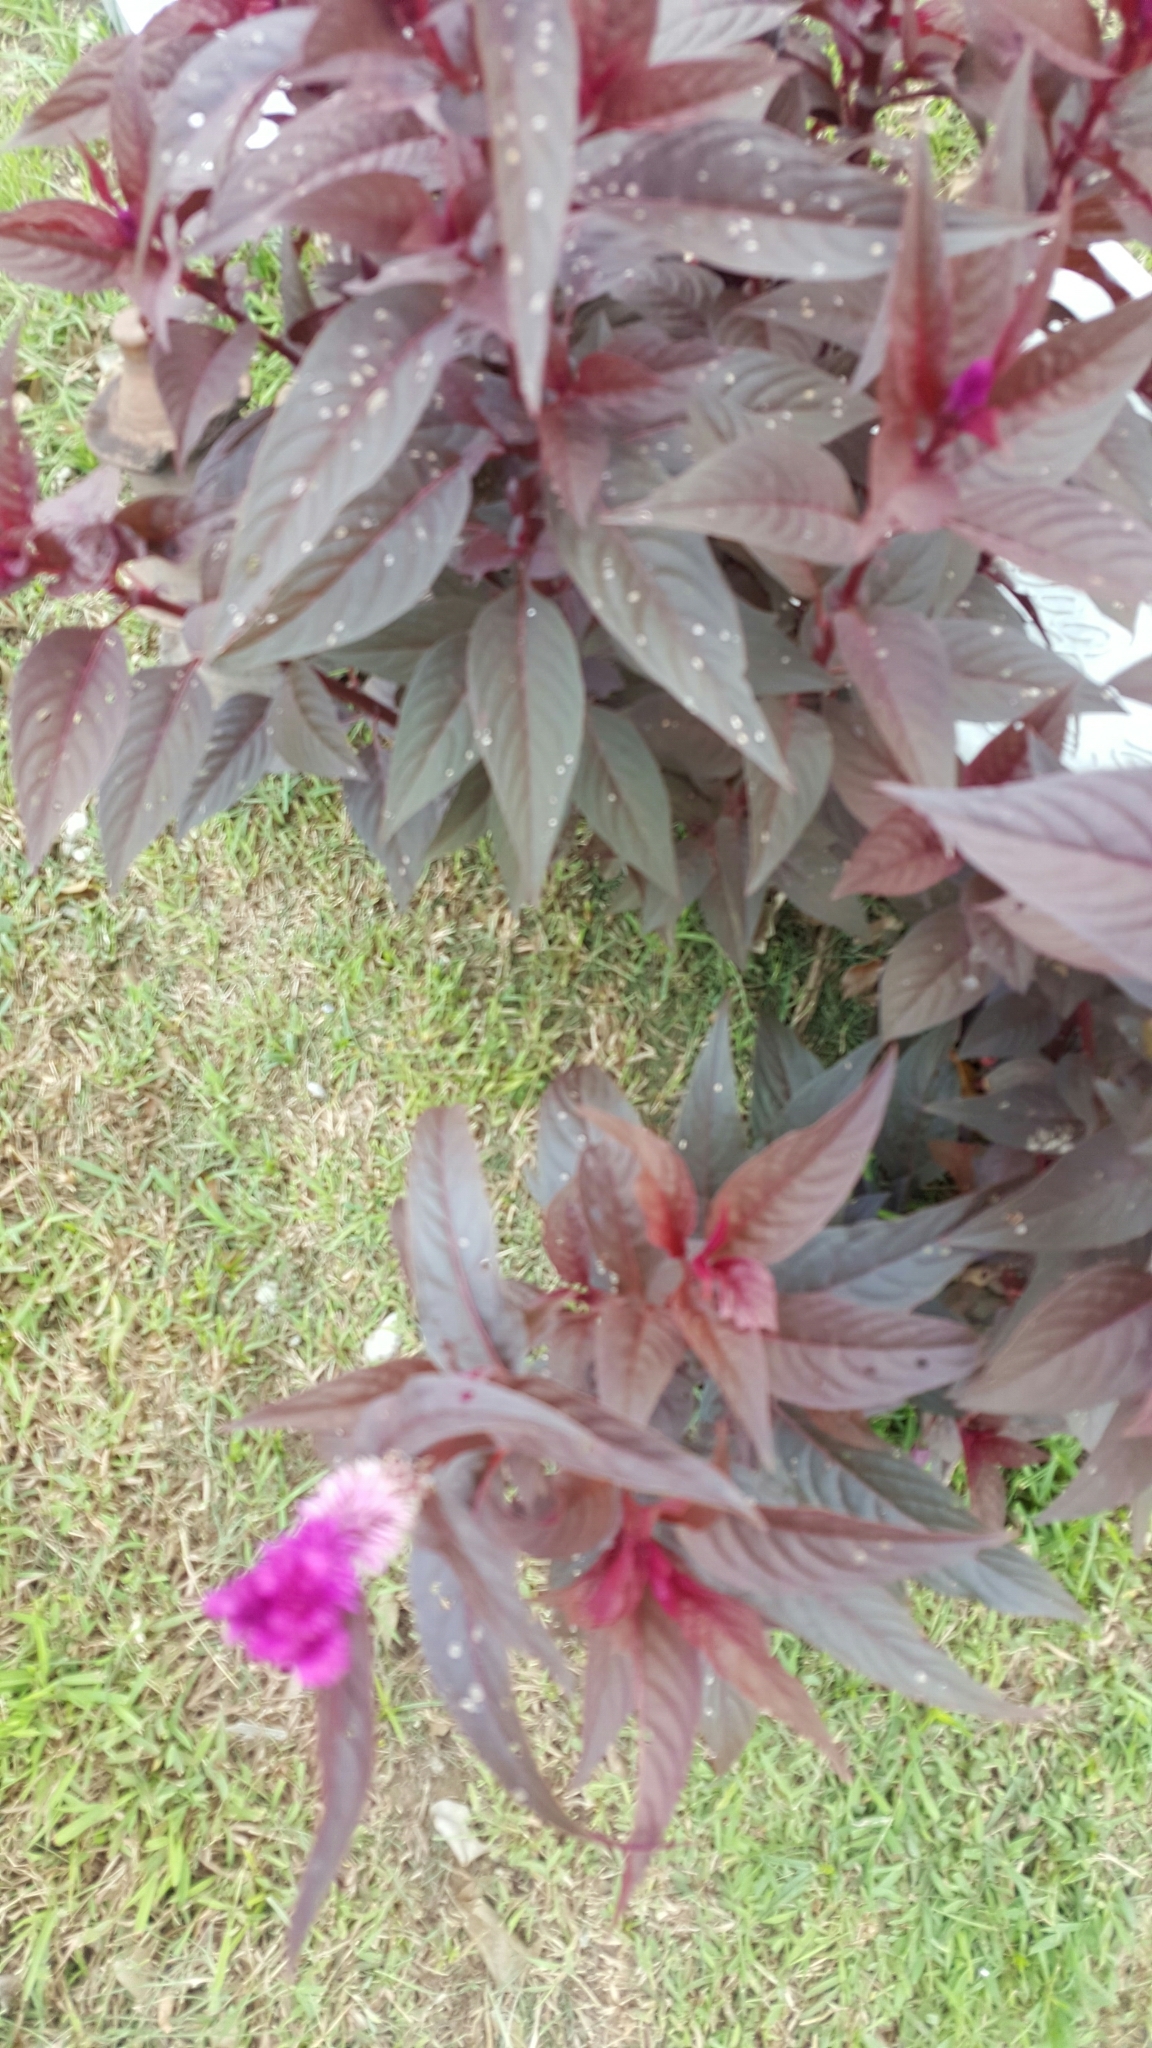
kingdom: Plantae
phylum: Tracheophyta
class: Magnoliopsida
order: Caryophyllales
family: Amaranthaceae
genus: Celosia
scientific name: Celosia argentea
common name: Feather cockscomb
